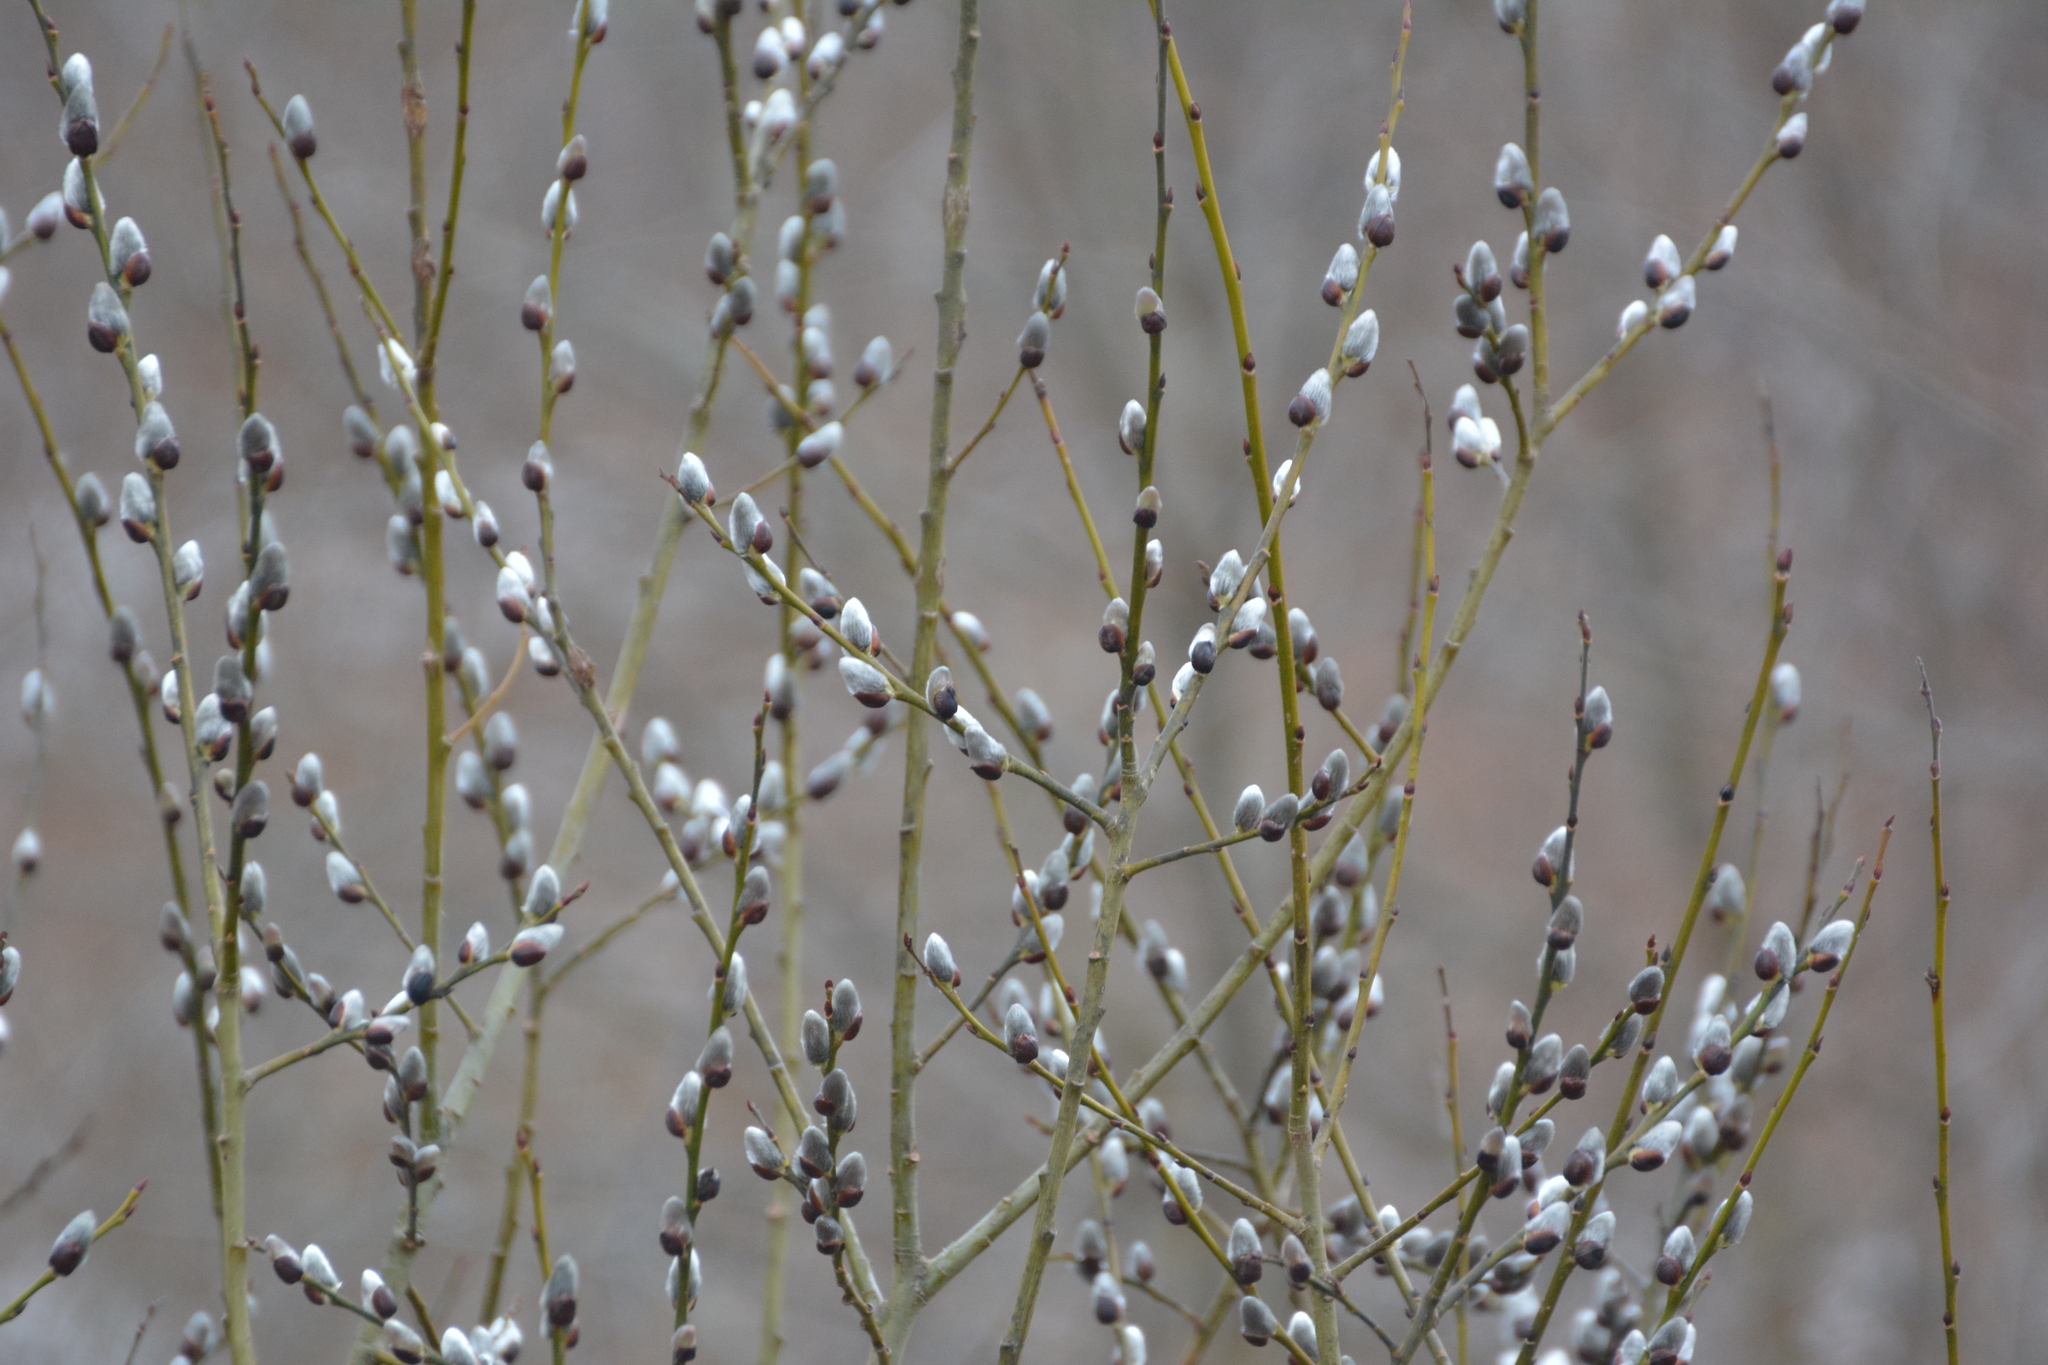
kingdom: Plantae
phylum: Tracheophyta
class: Magnoliopsida
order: Malpighiales
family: Salicaceae
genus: Salix
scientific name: Salix caprea
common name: Goat willow
